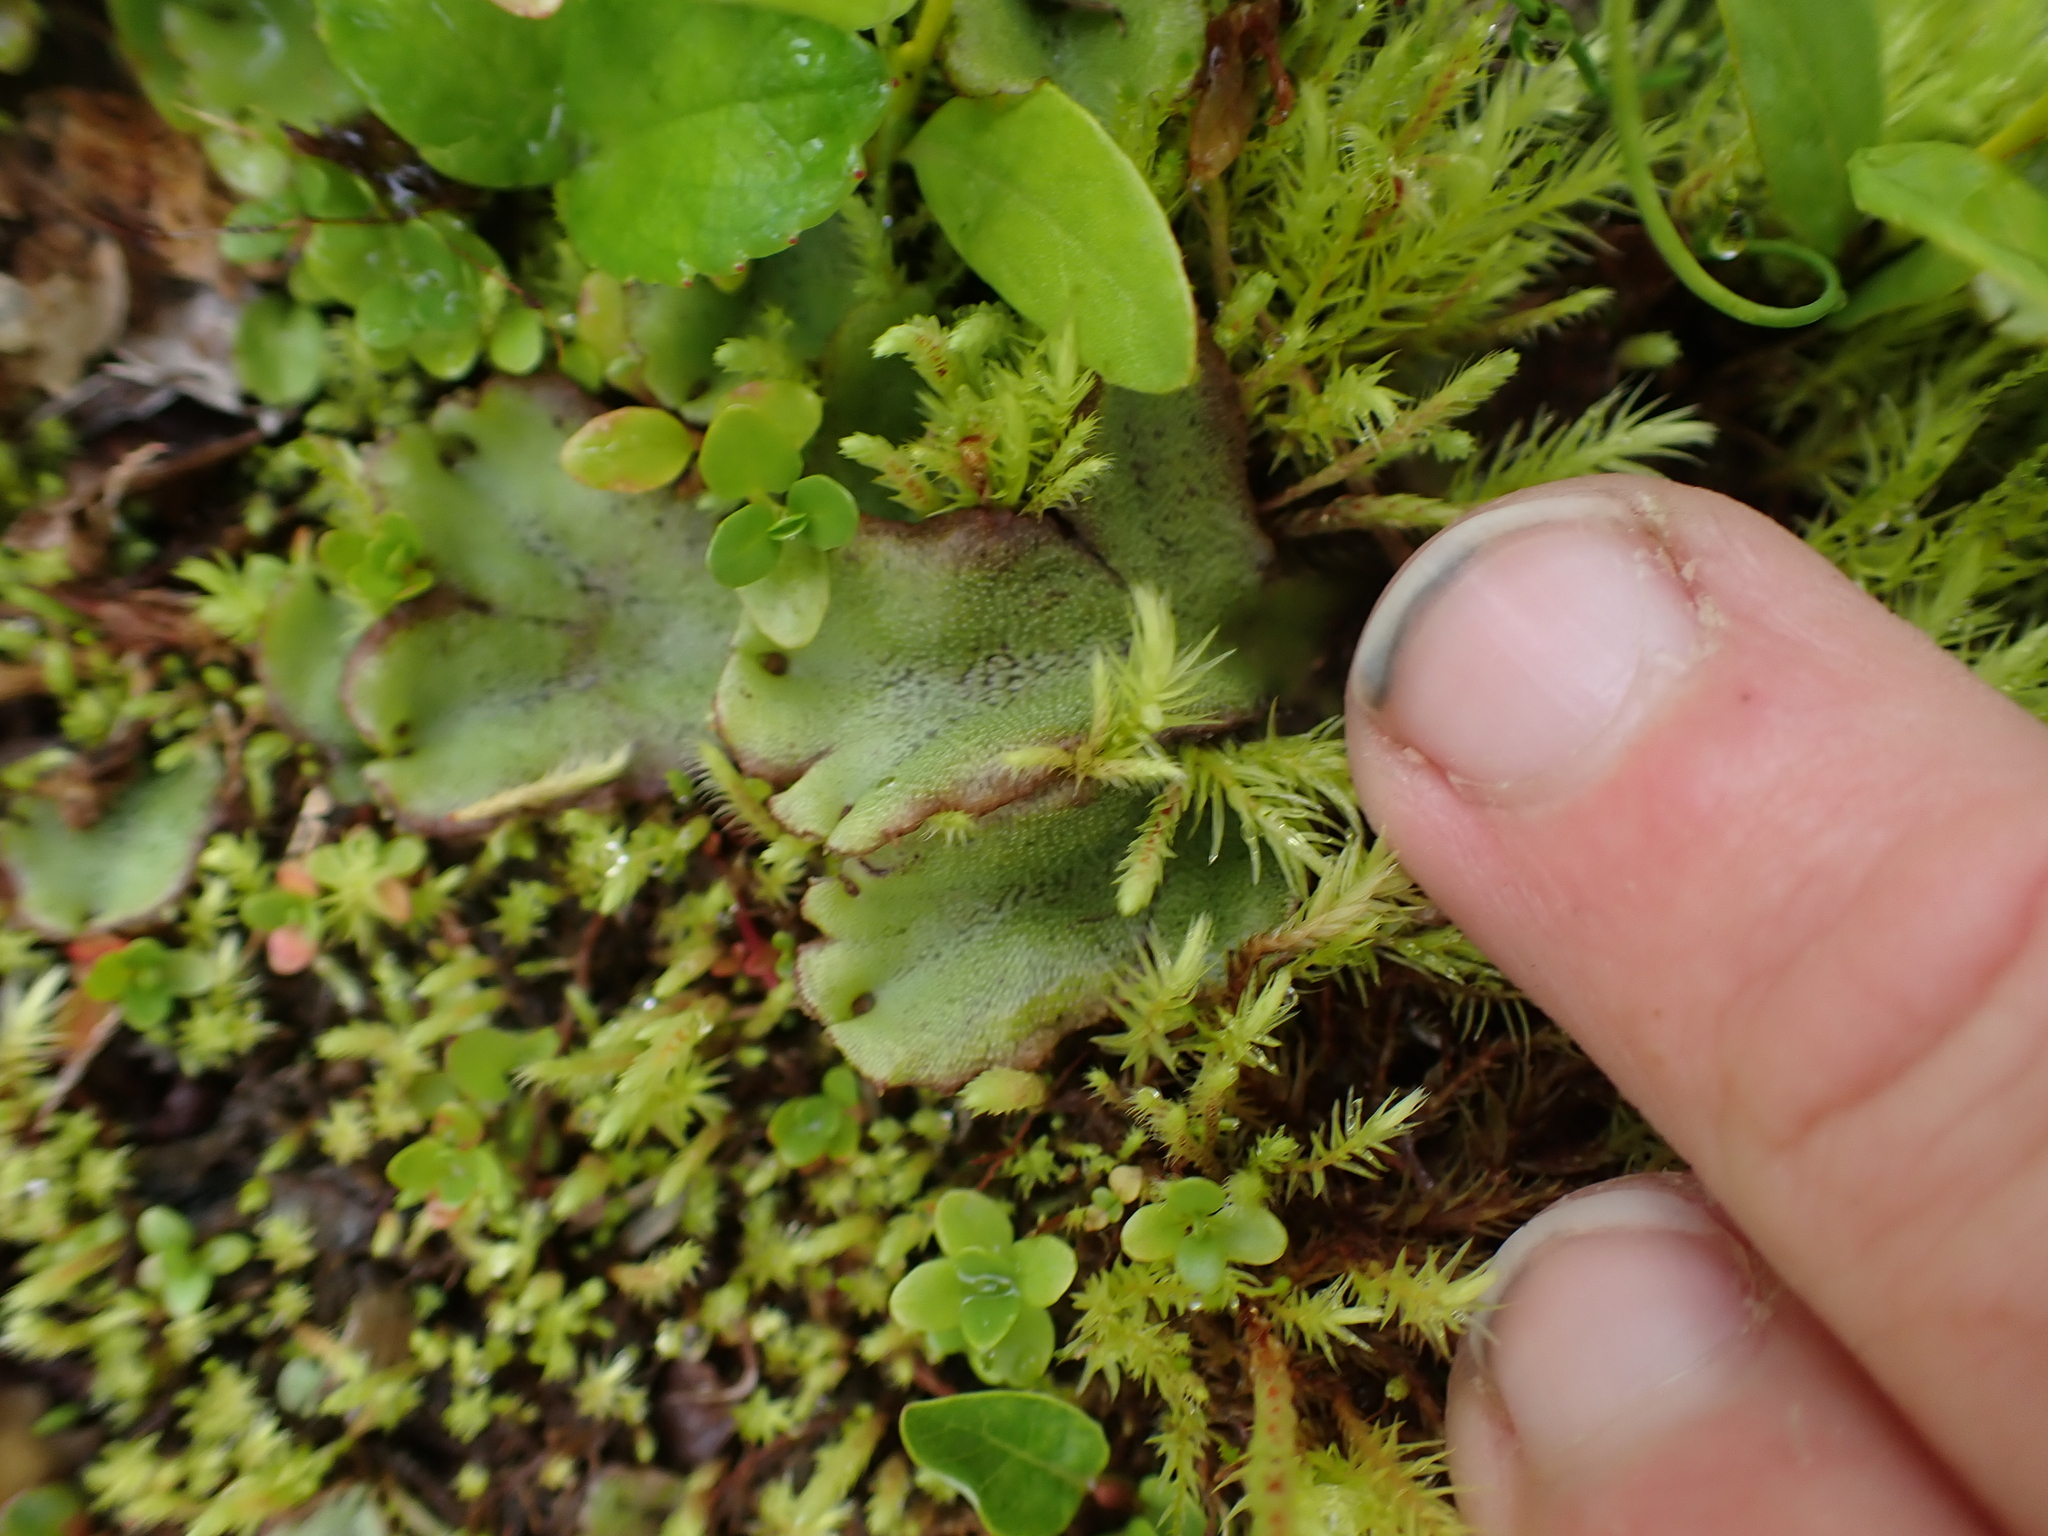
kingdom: Plantae
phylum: Marchantiophyta
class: Marchantiopsida
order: Marchantiales
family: Marchantiaceae
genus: Marchantia
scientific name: Marchantia polymorpha
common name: Common liverwort
